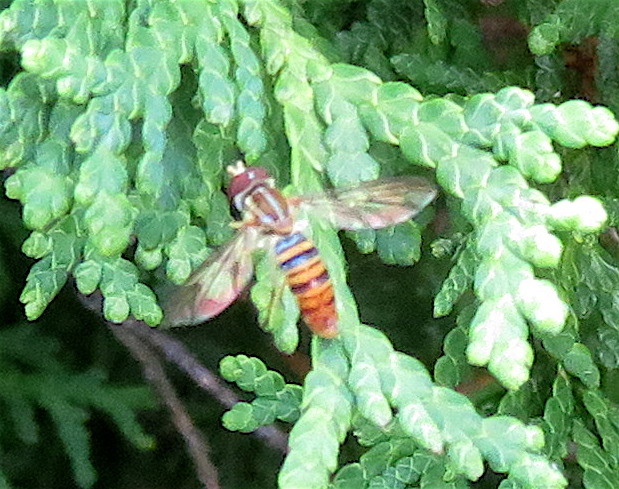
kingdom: Animalia
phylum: Arthropoda
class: Insecta
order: Diptera
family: Syrphidae
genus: Toxomerus
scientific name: Toxomerus politus
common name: Maize calligrapher
